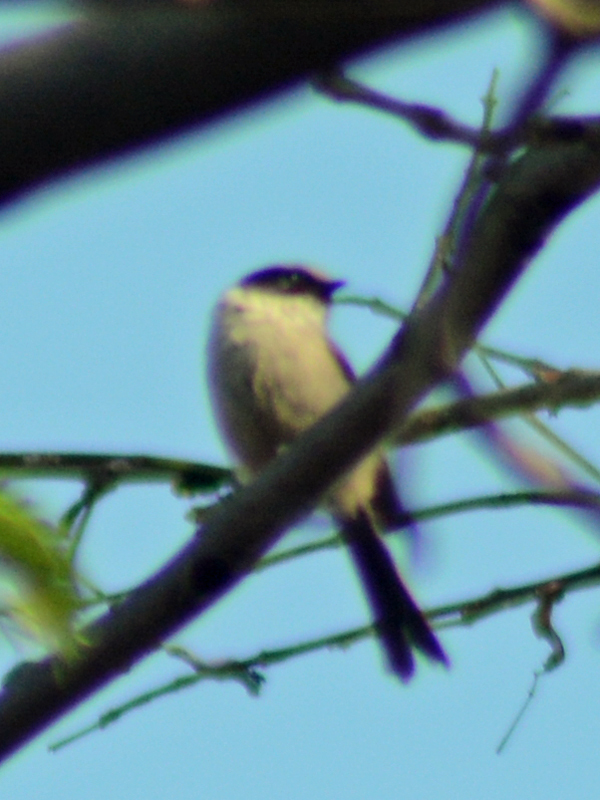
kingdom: Animalia
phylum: Chordata
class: Aves
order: Passeriformes
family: Aegithalidae
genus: Psaltriparus
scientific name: Psaltriparus minimus
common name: American bushtit
